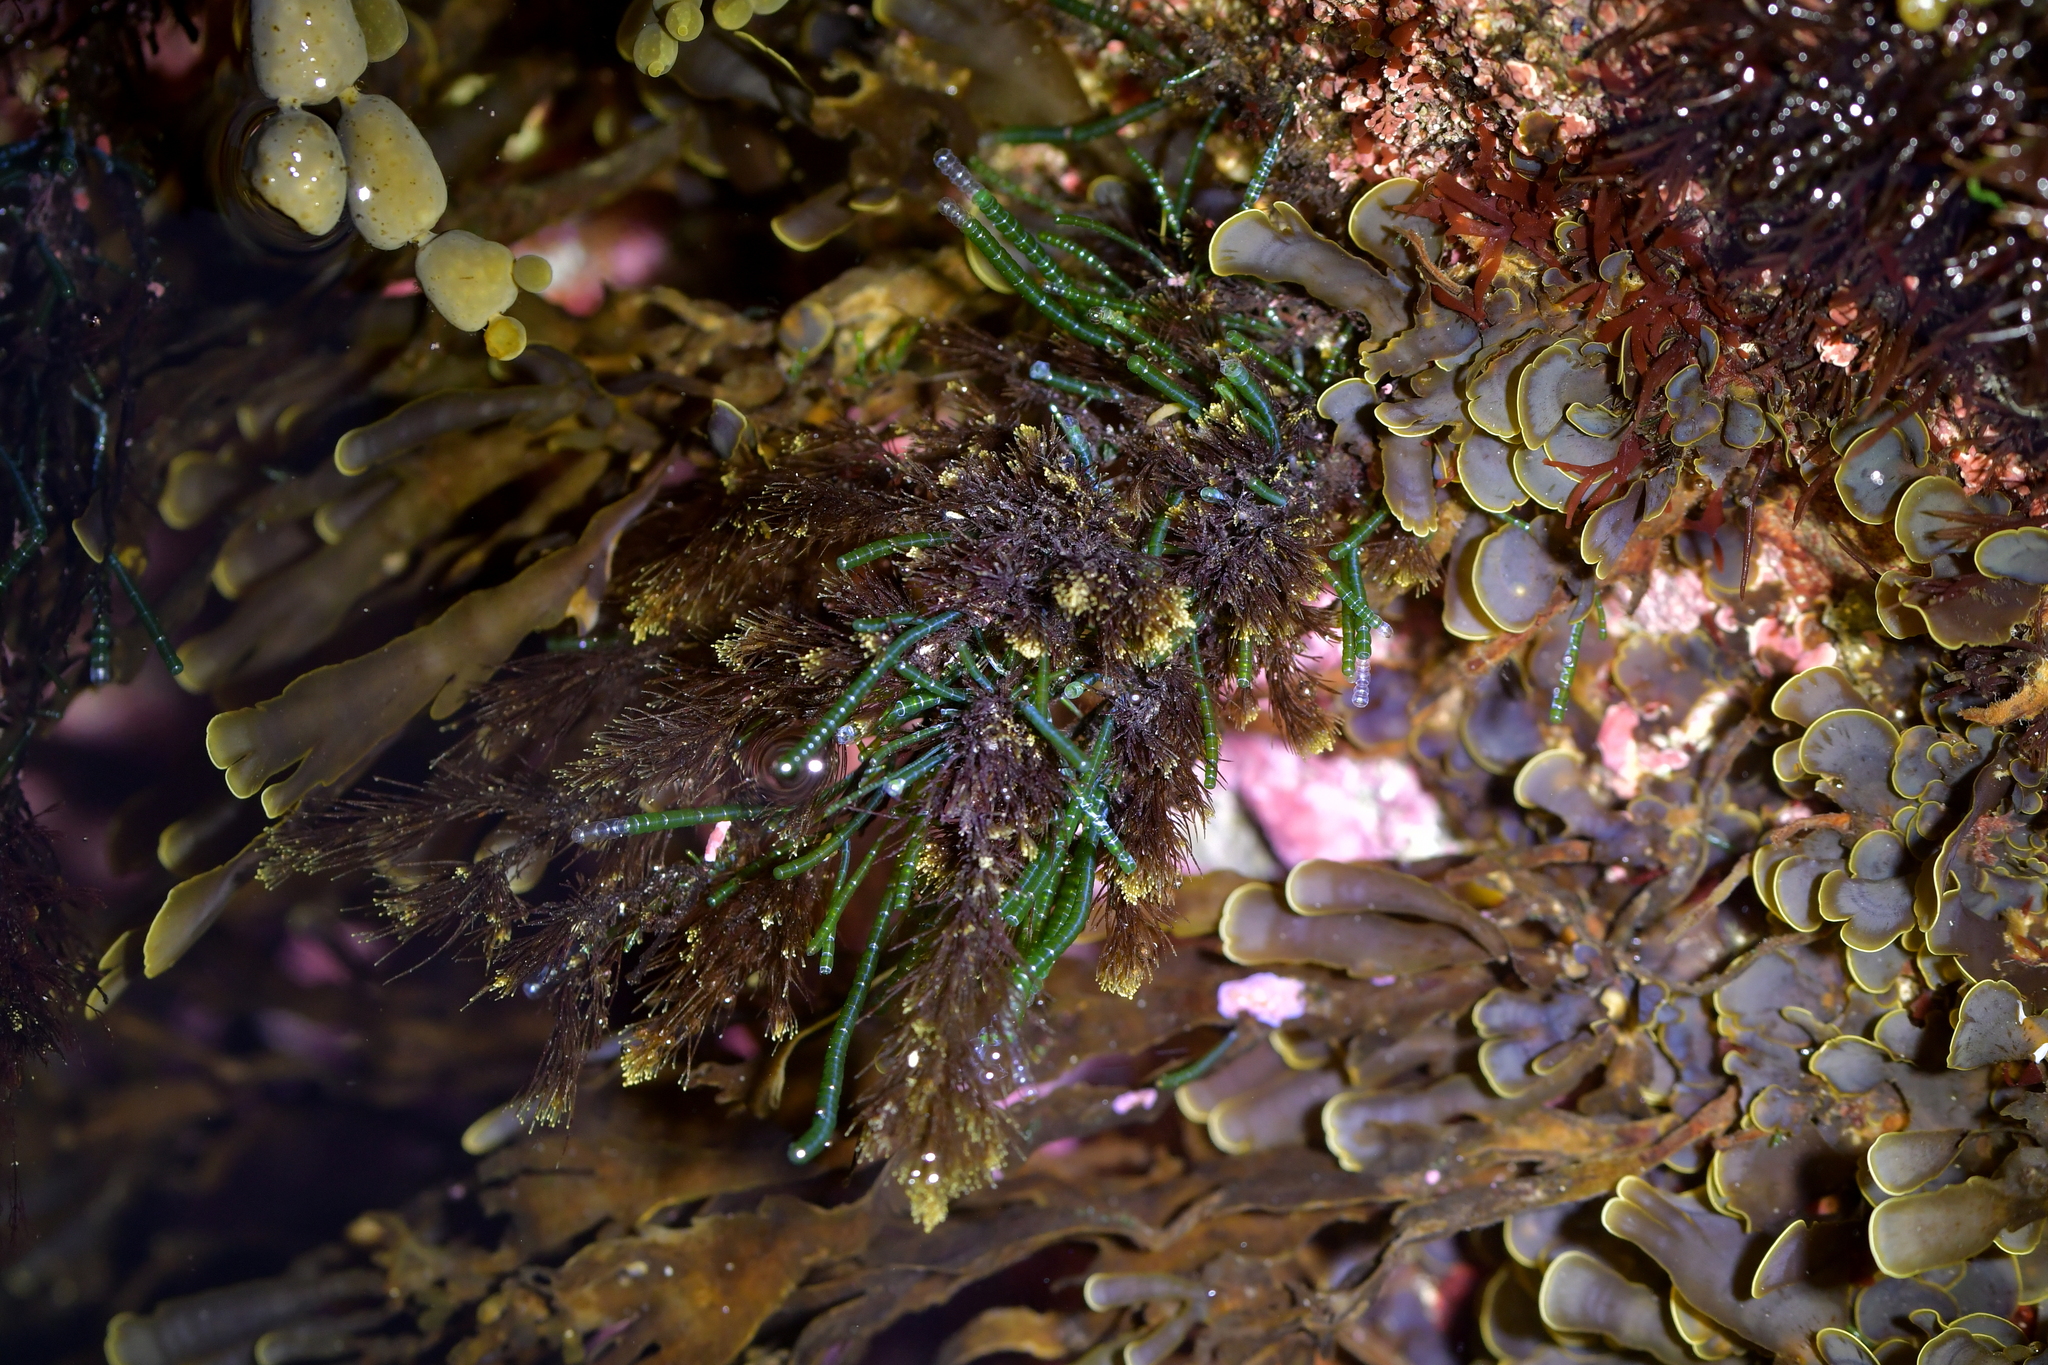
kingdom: Plantae
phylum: Chlorophyta
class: Ulvophyceae
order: Cladophorales
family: Cladophoraceae
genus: Chaetomorpha
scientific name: Chaetomorpha coliformis
